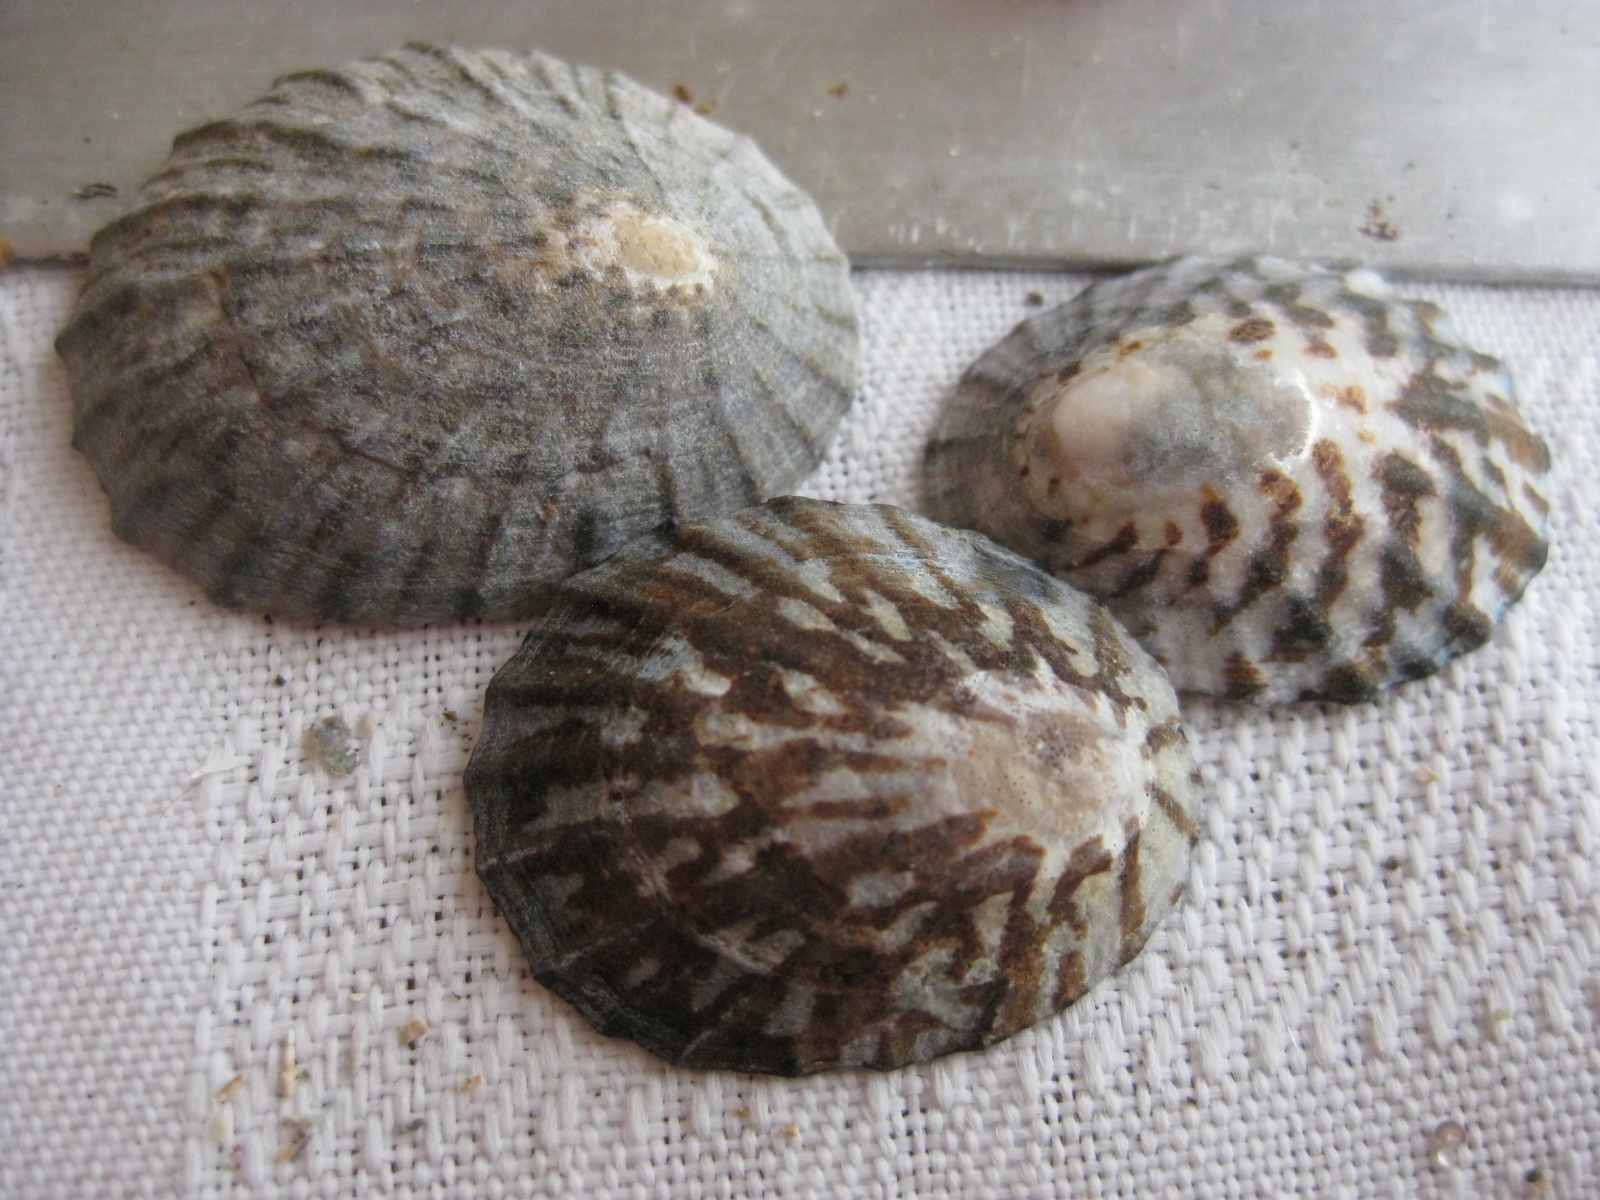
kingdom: Animalia
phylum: Mollusca
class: Gastropoda
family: Nacellidae
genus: Cellana
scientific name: Cellana radians
